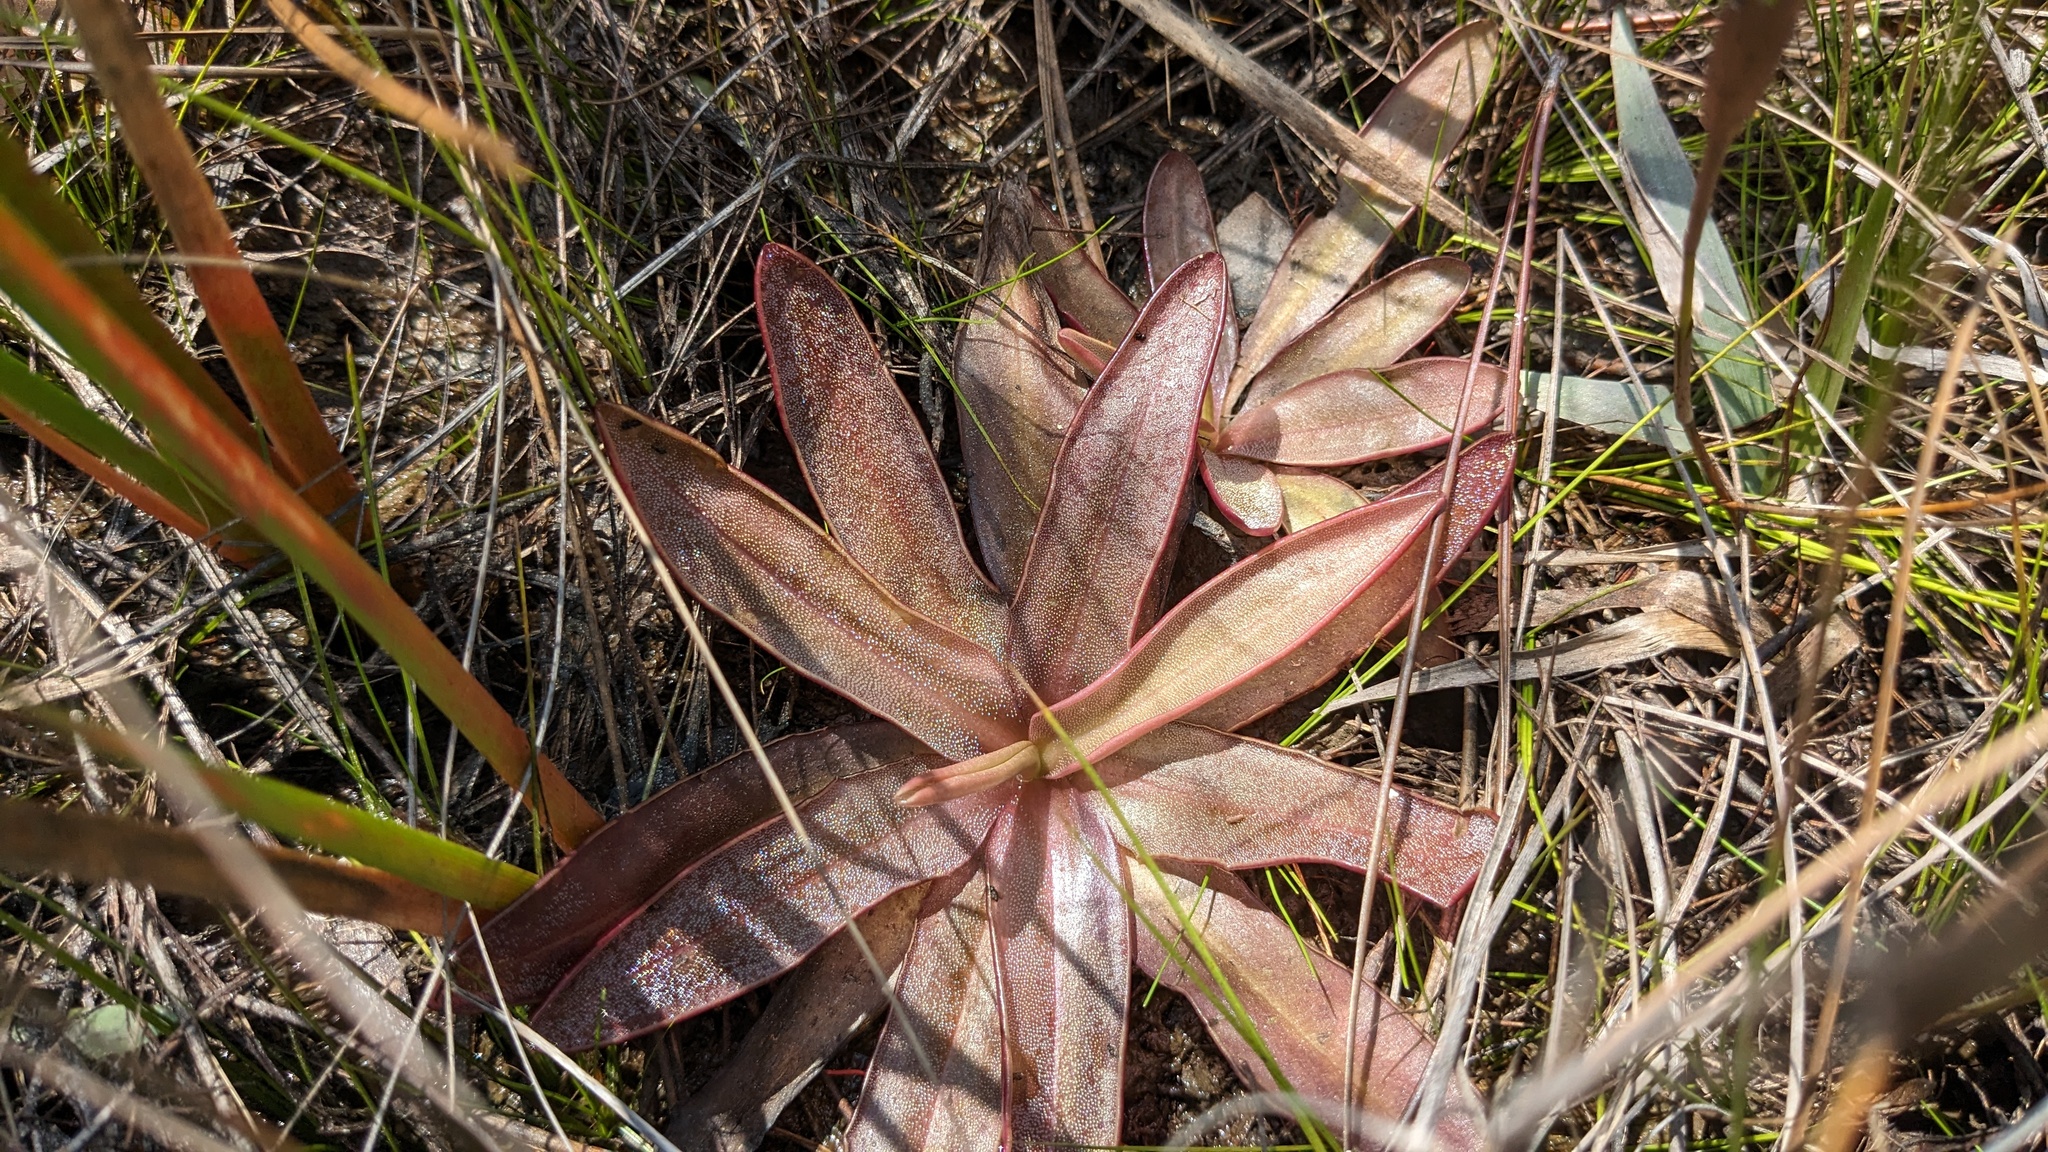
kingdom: Plantae
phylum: Tracheophyta
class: Magnoliopsida
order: Lamiales
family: Lentibulariaceae
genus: Pinguicula
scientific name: Pinguicula planifolia
